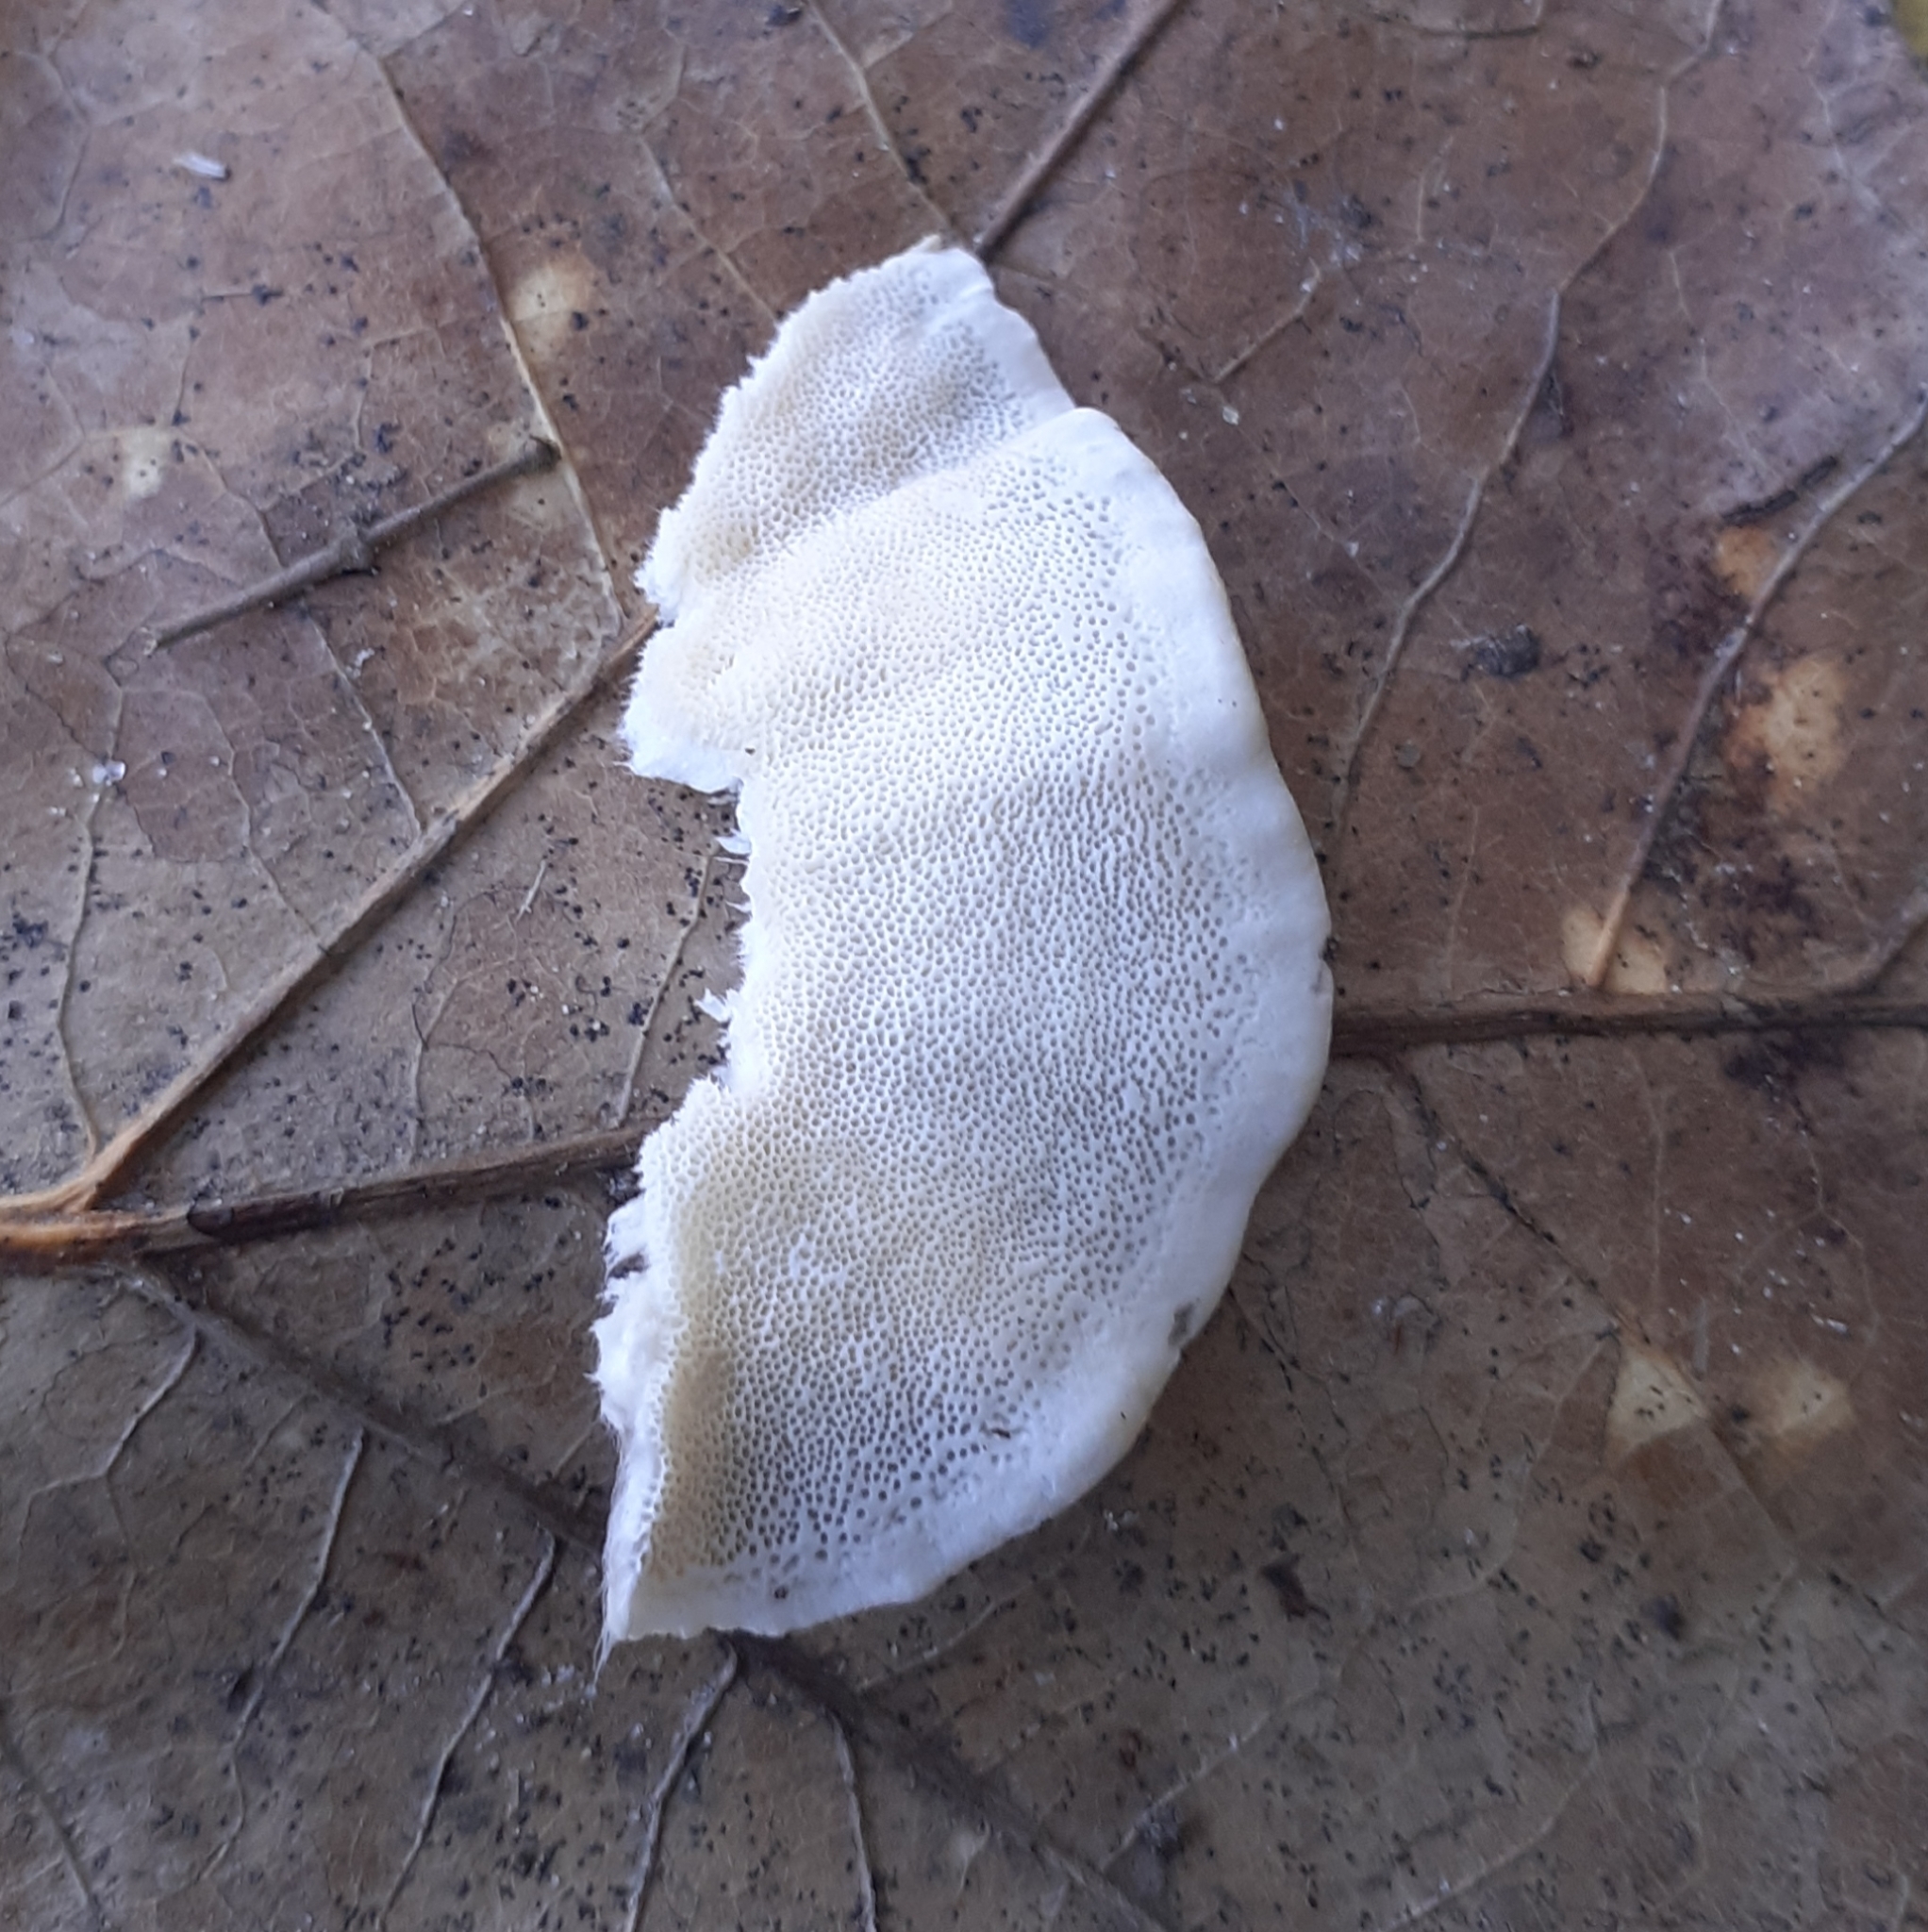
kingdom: Fungi
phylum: Basidiomycota
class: Agaricomycetes
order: Polyporales
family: Polyporaceae
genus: Trametes
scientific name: Trametes versicolor
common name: Turkeytail
